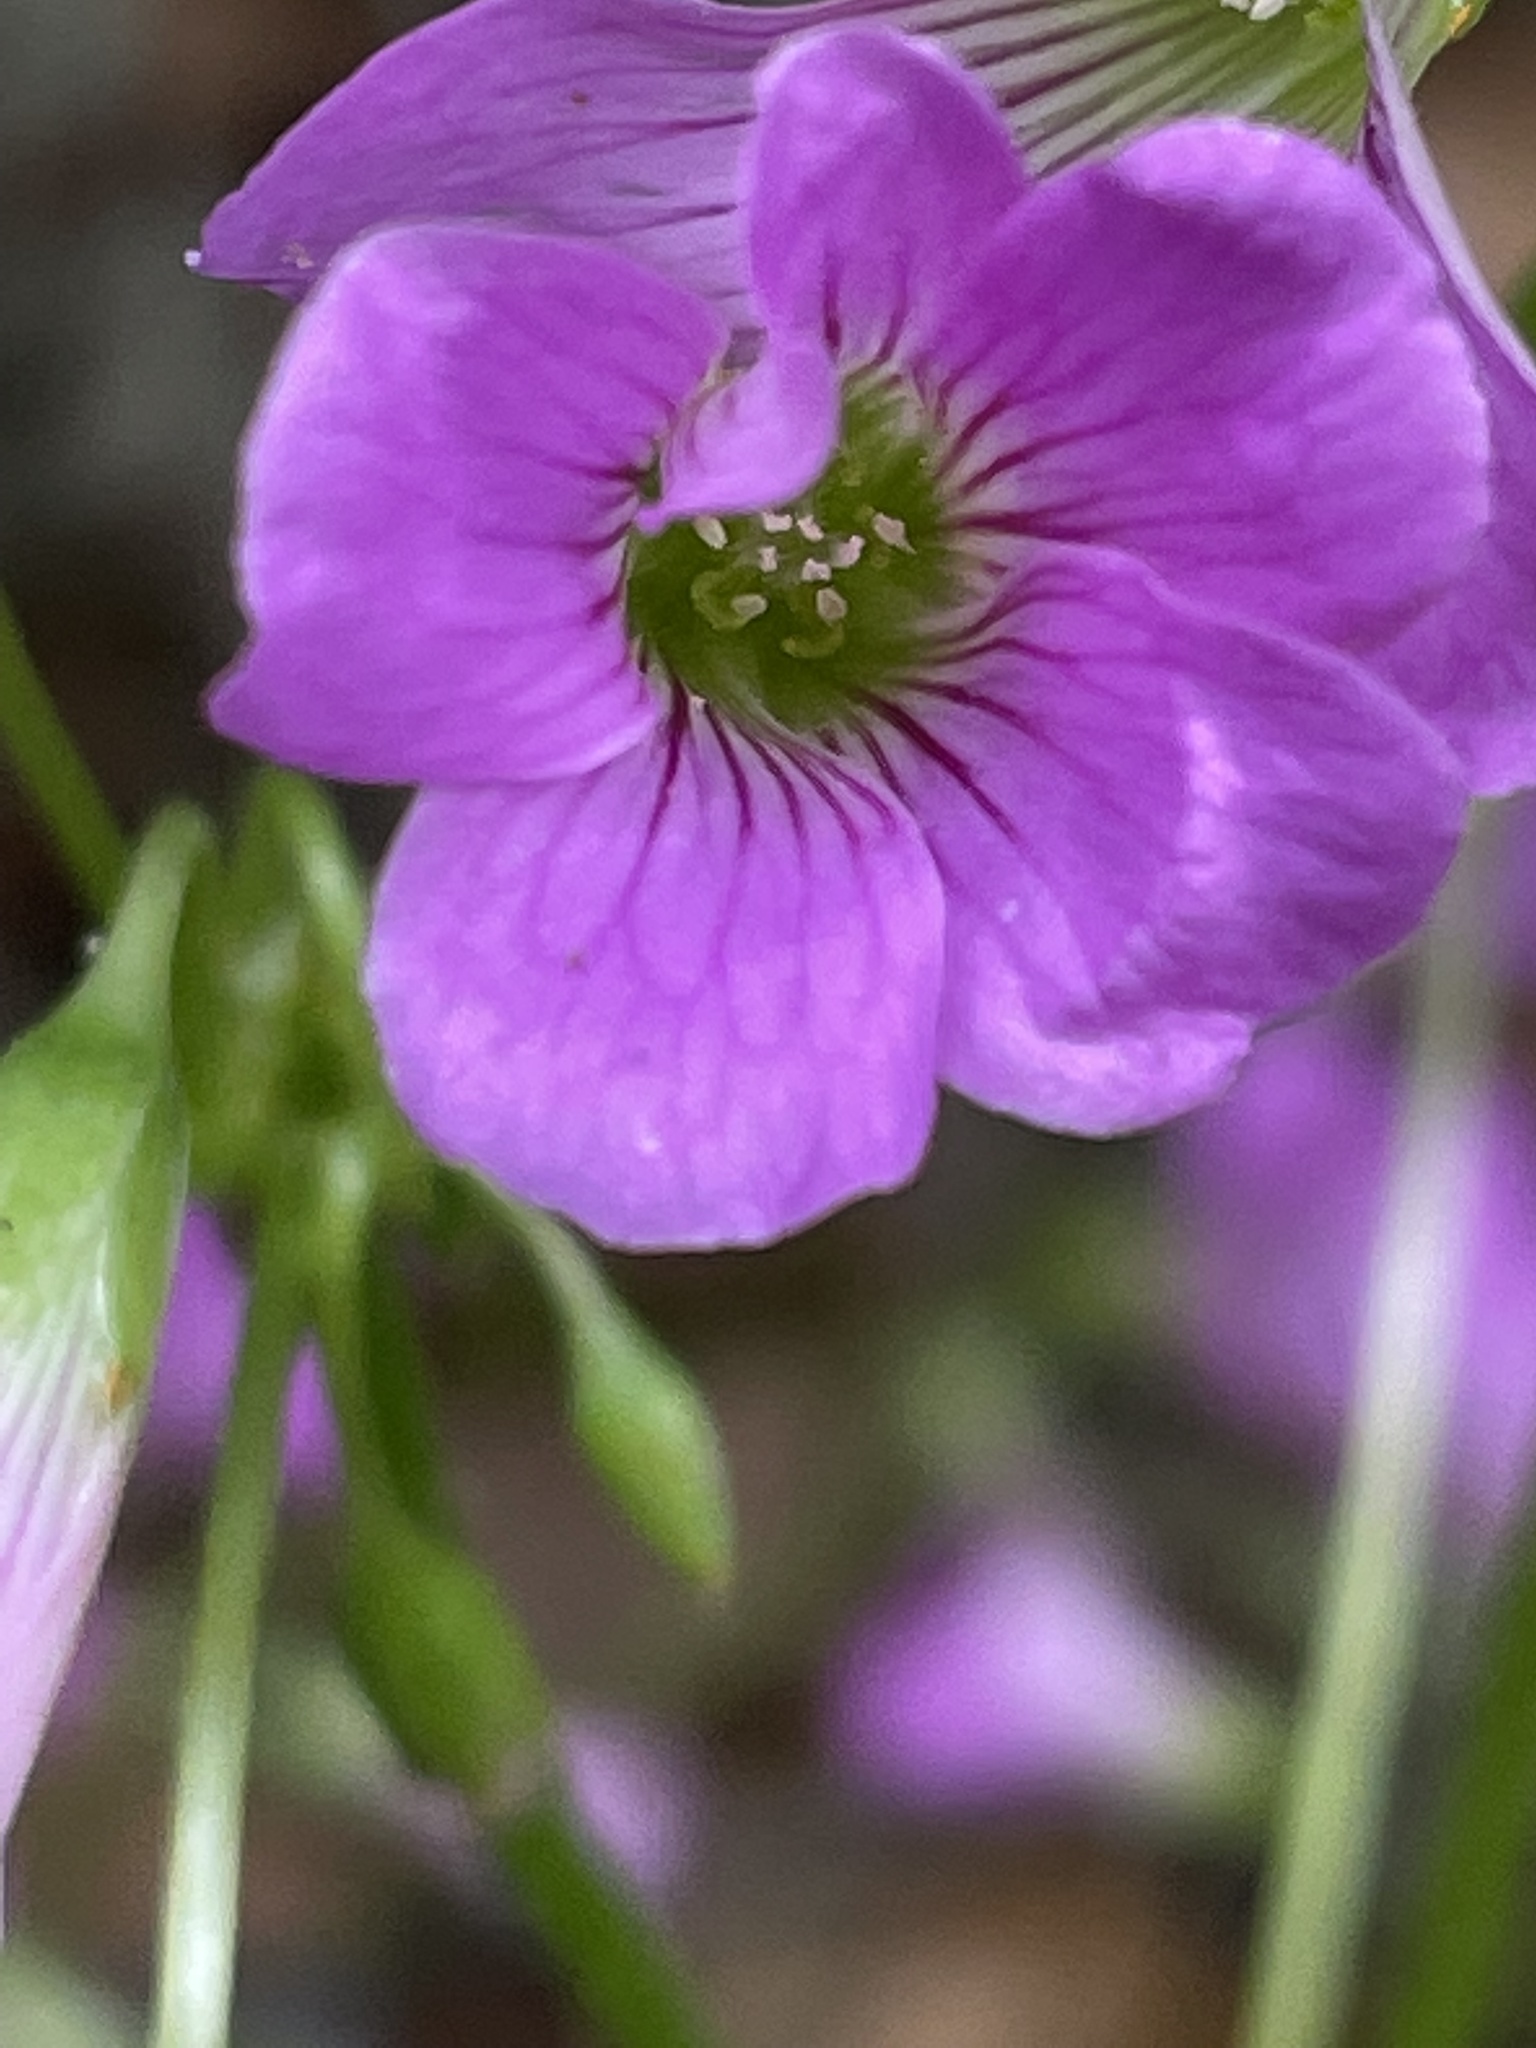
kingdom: Plantae
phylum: Tracheophyta
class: Magnoliopsida
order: Oxalidales
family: Oxalidaceae
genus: Oxalis
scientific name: Oxalis debilis
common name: Large-flowered pink-sorrel
